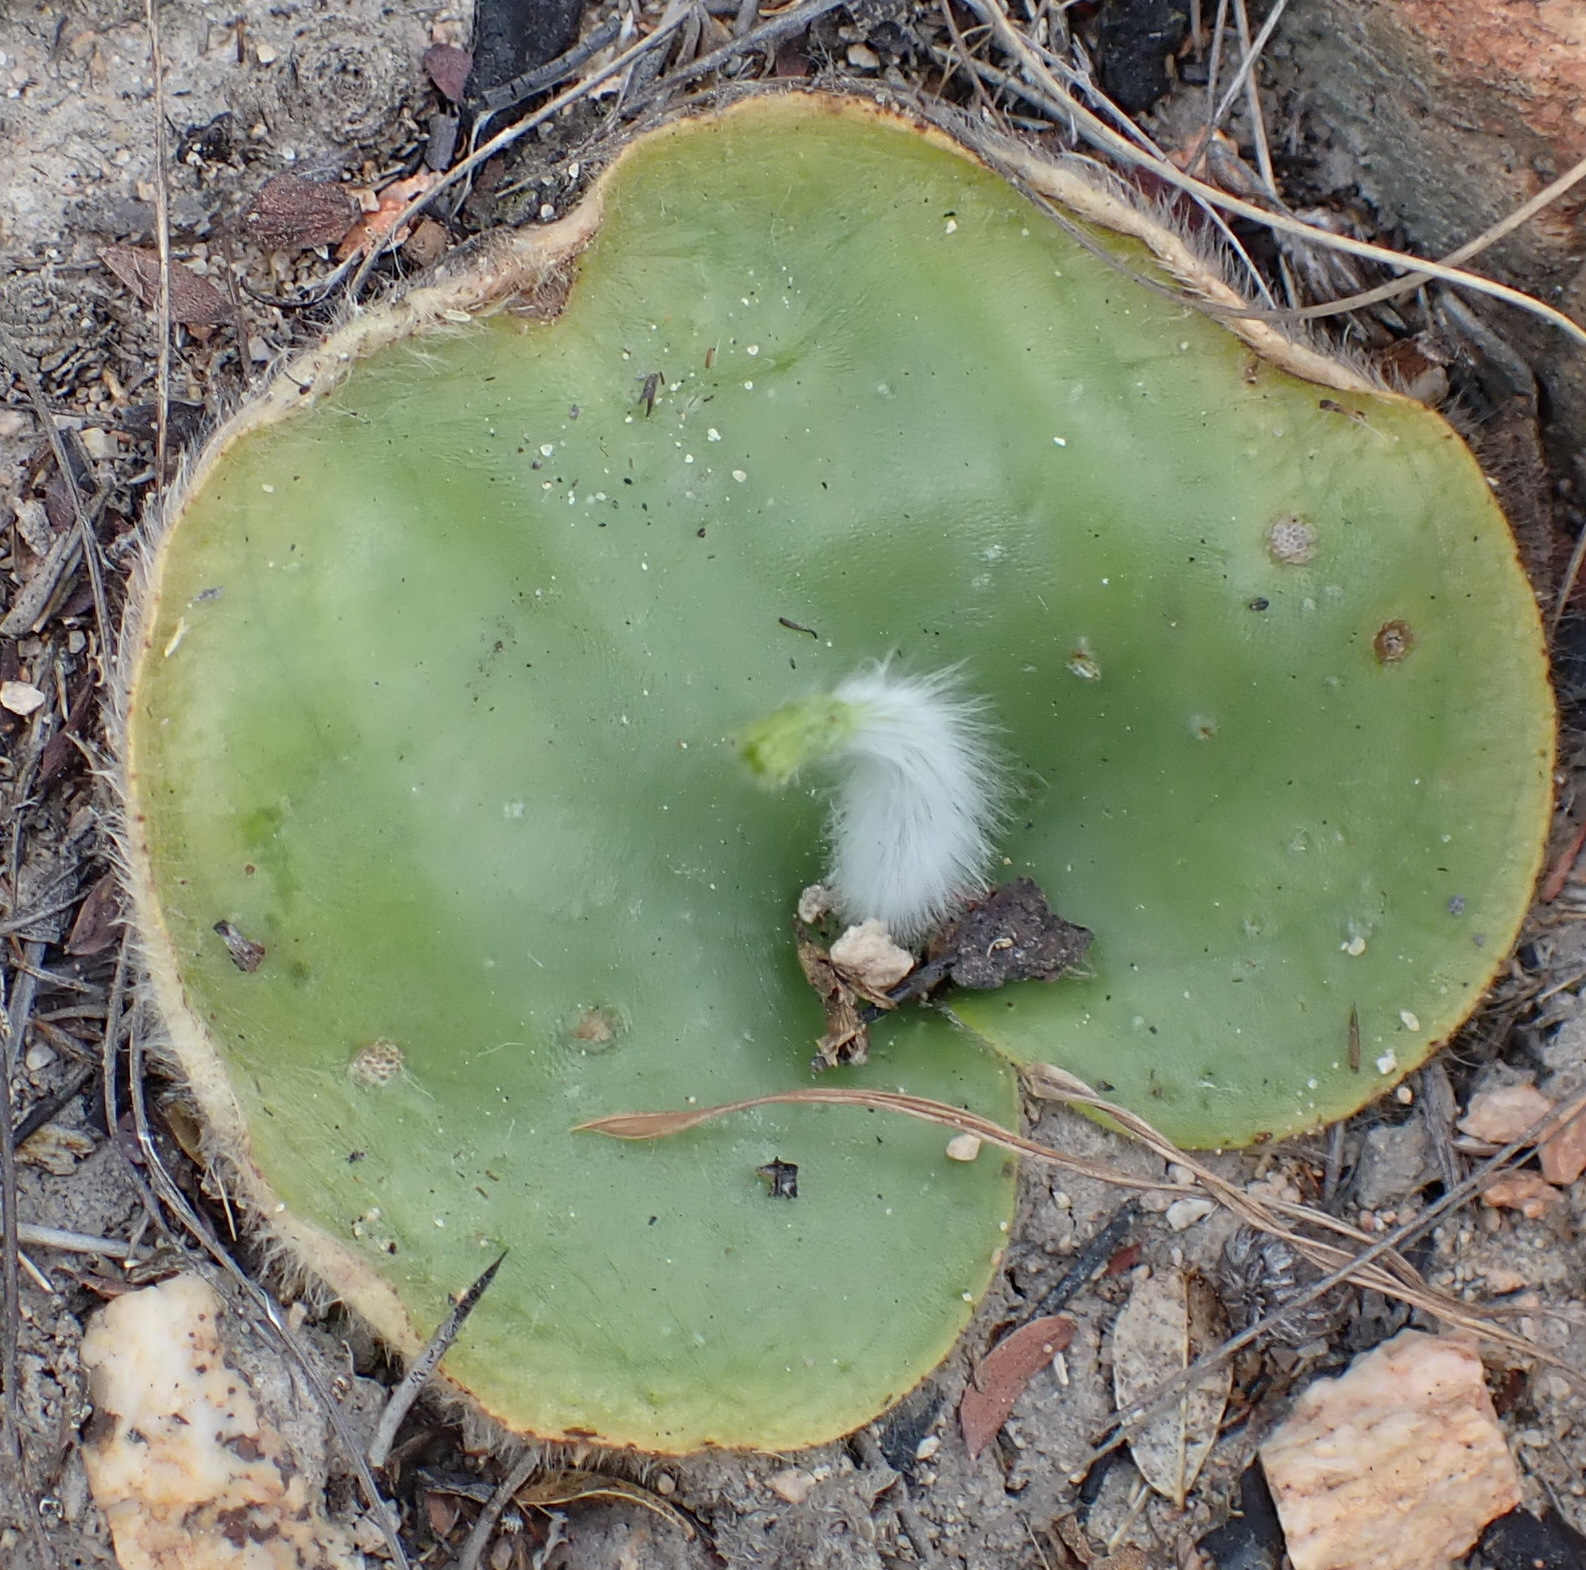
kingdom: Plantae
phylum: Tracheophyta
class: Liliopsida
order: Asparagales
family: Orchidaceae
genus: Holothrix
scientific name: Holothrix pilosa
